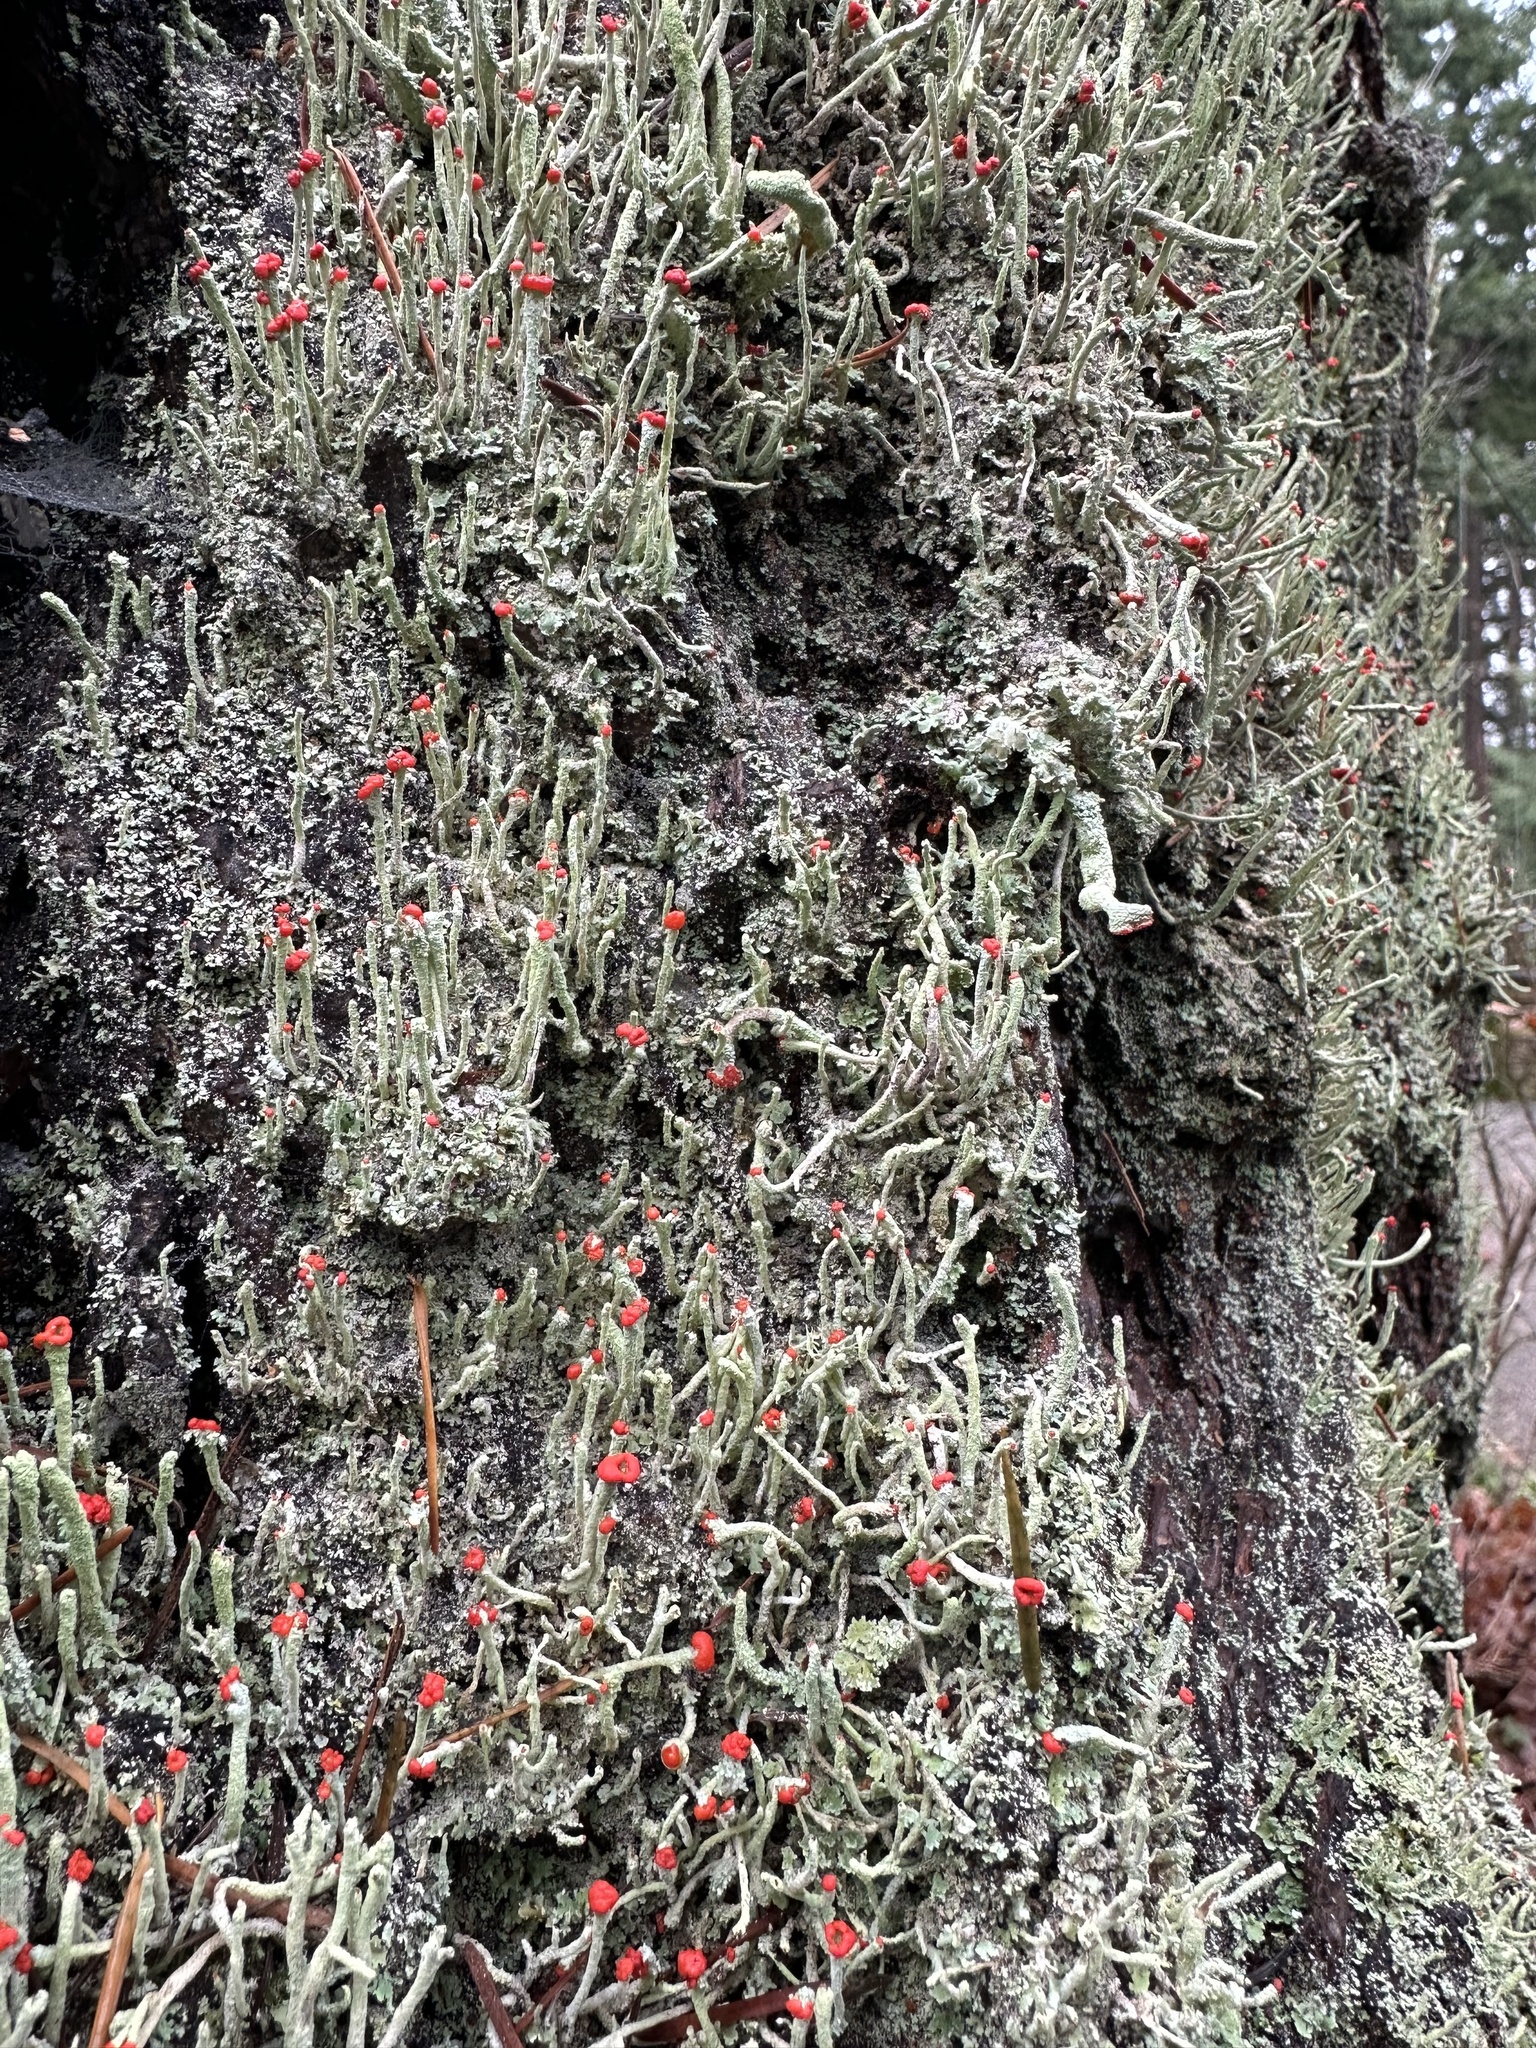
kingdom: Fungi
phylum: Ascomycota
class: Lecanoromycetes
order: Lecanorales
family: Cladoniaceae
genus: Cladonia
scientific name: Cladonia bellidiflora
